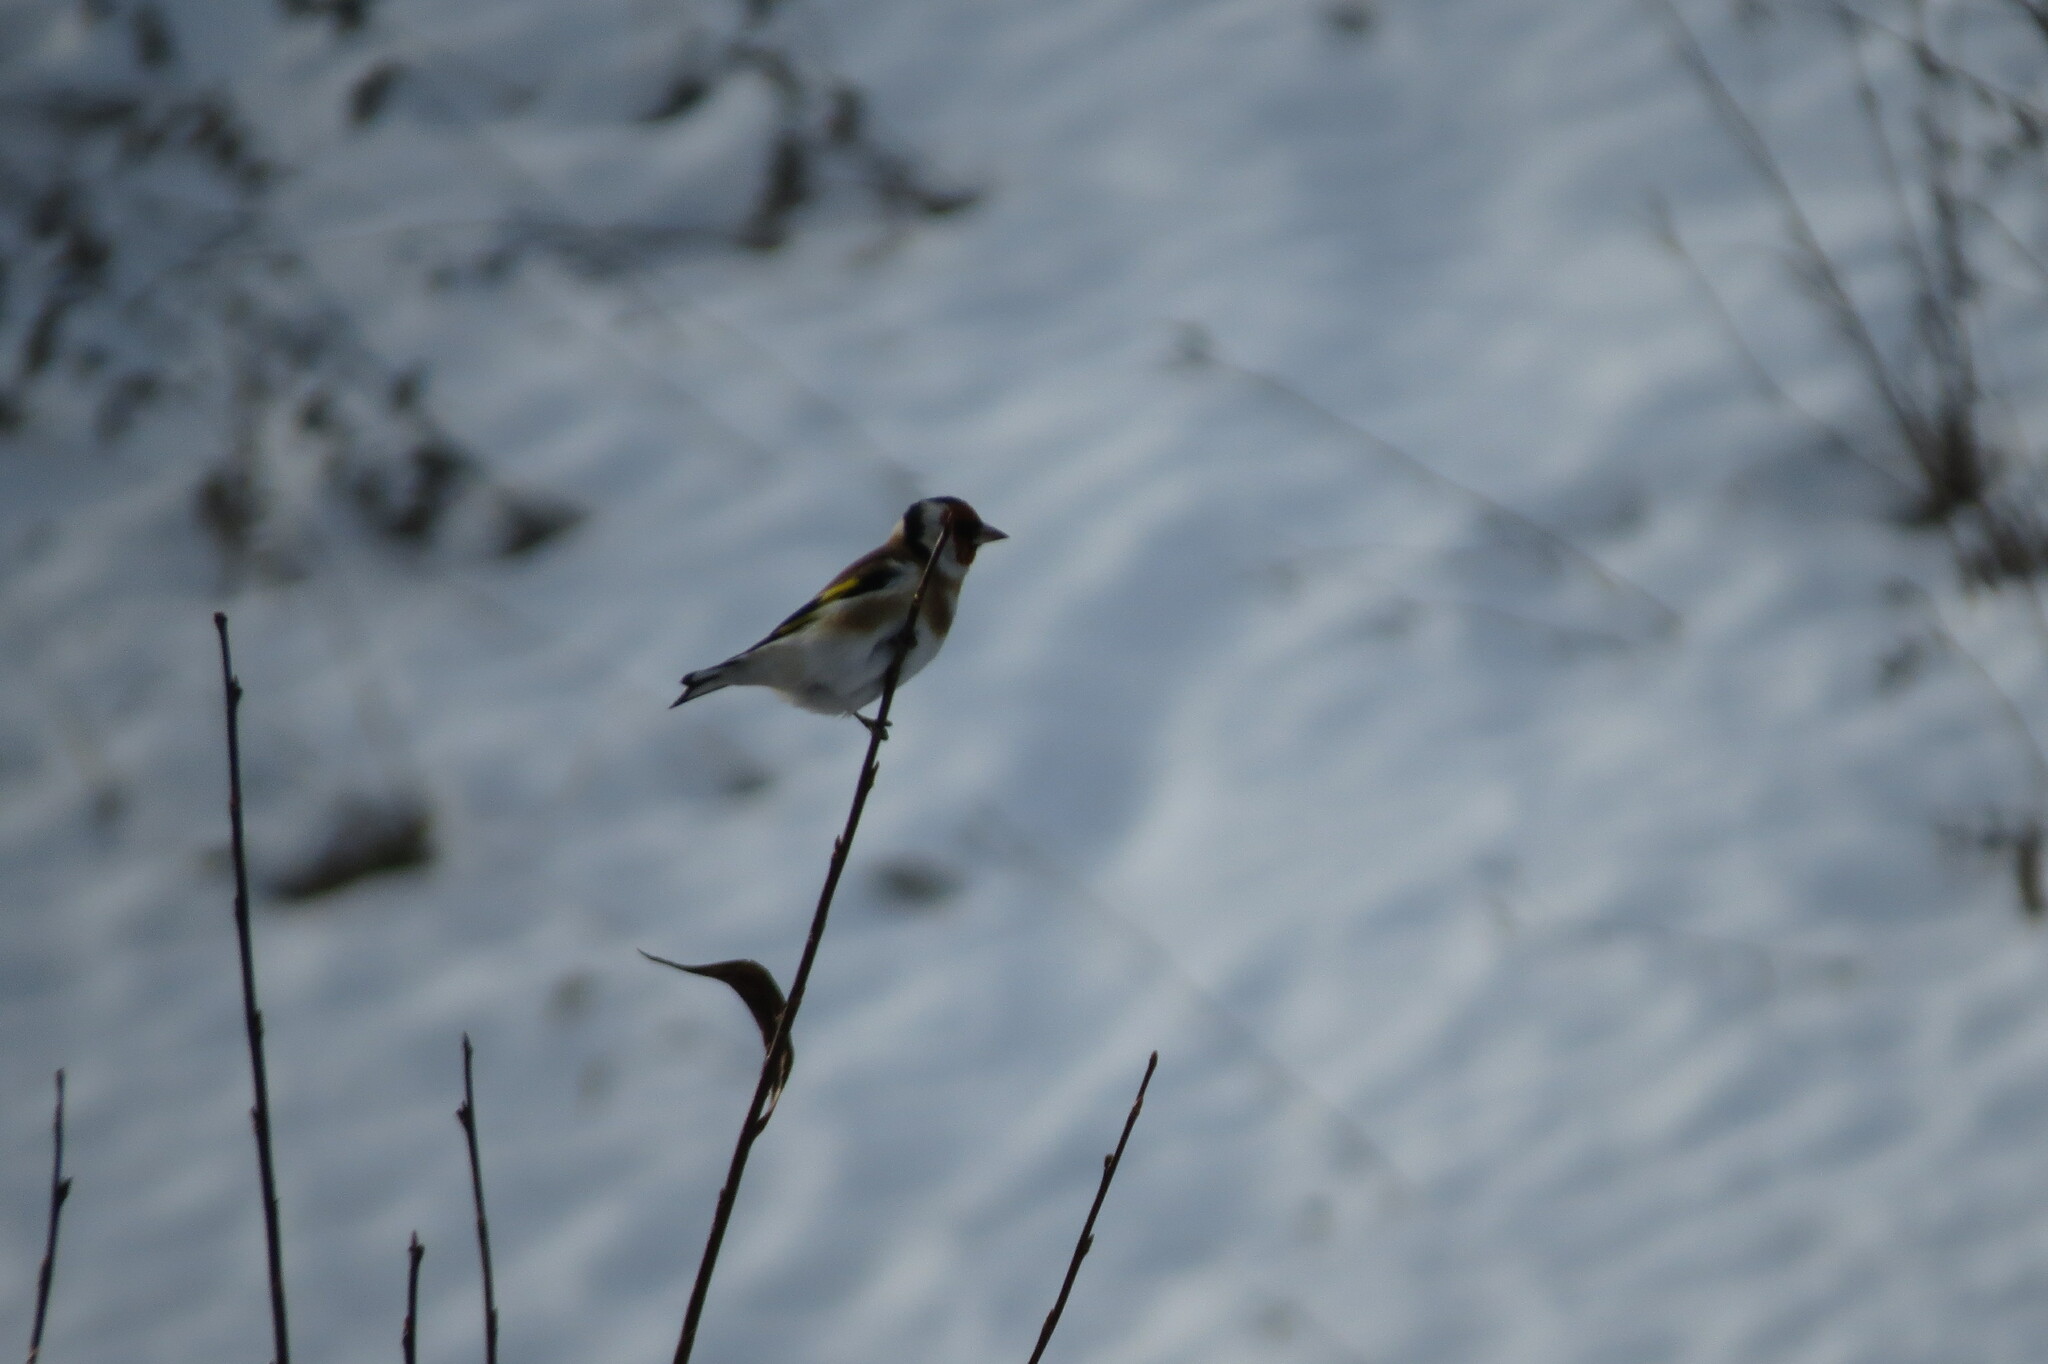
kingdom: Animalia
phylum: Chordata
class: Aves
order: Passeriformes
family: Fringillidae
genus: Carduelis
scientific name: Carduelis carduelis
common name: European goldfinch
